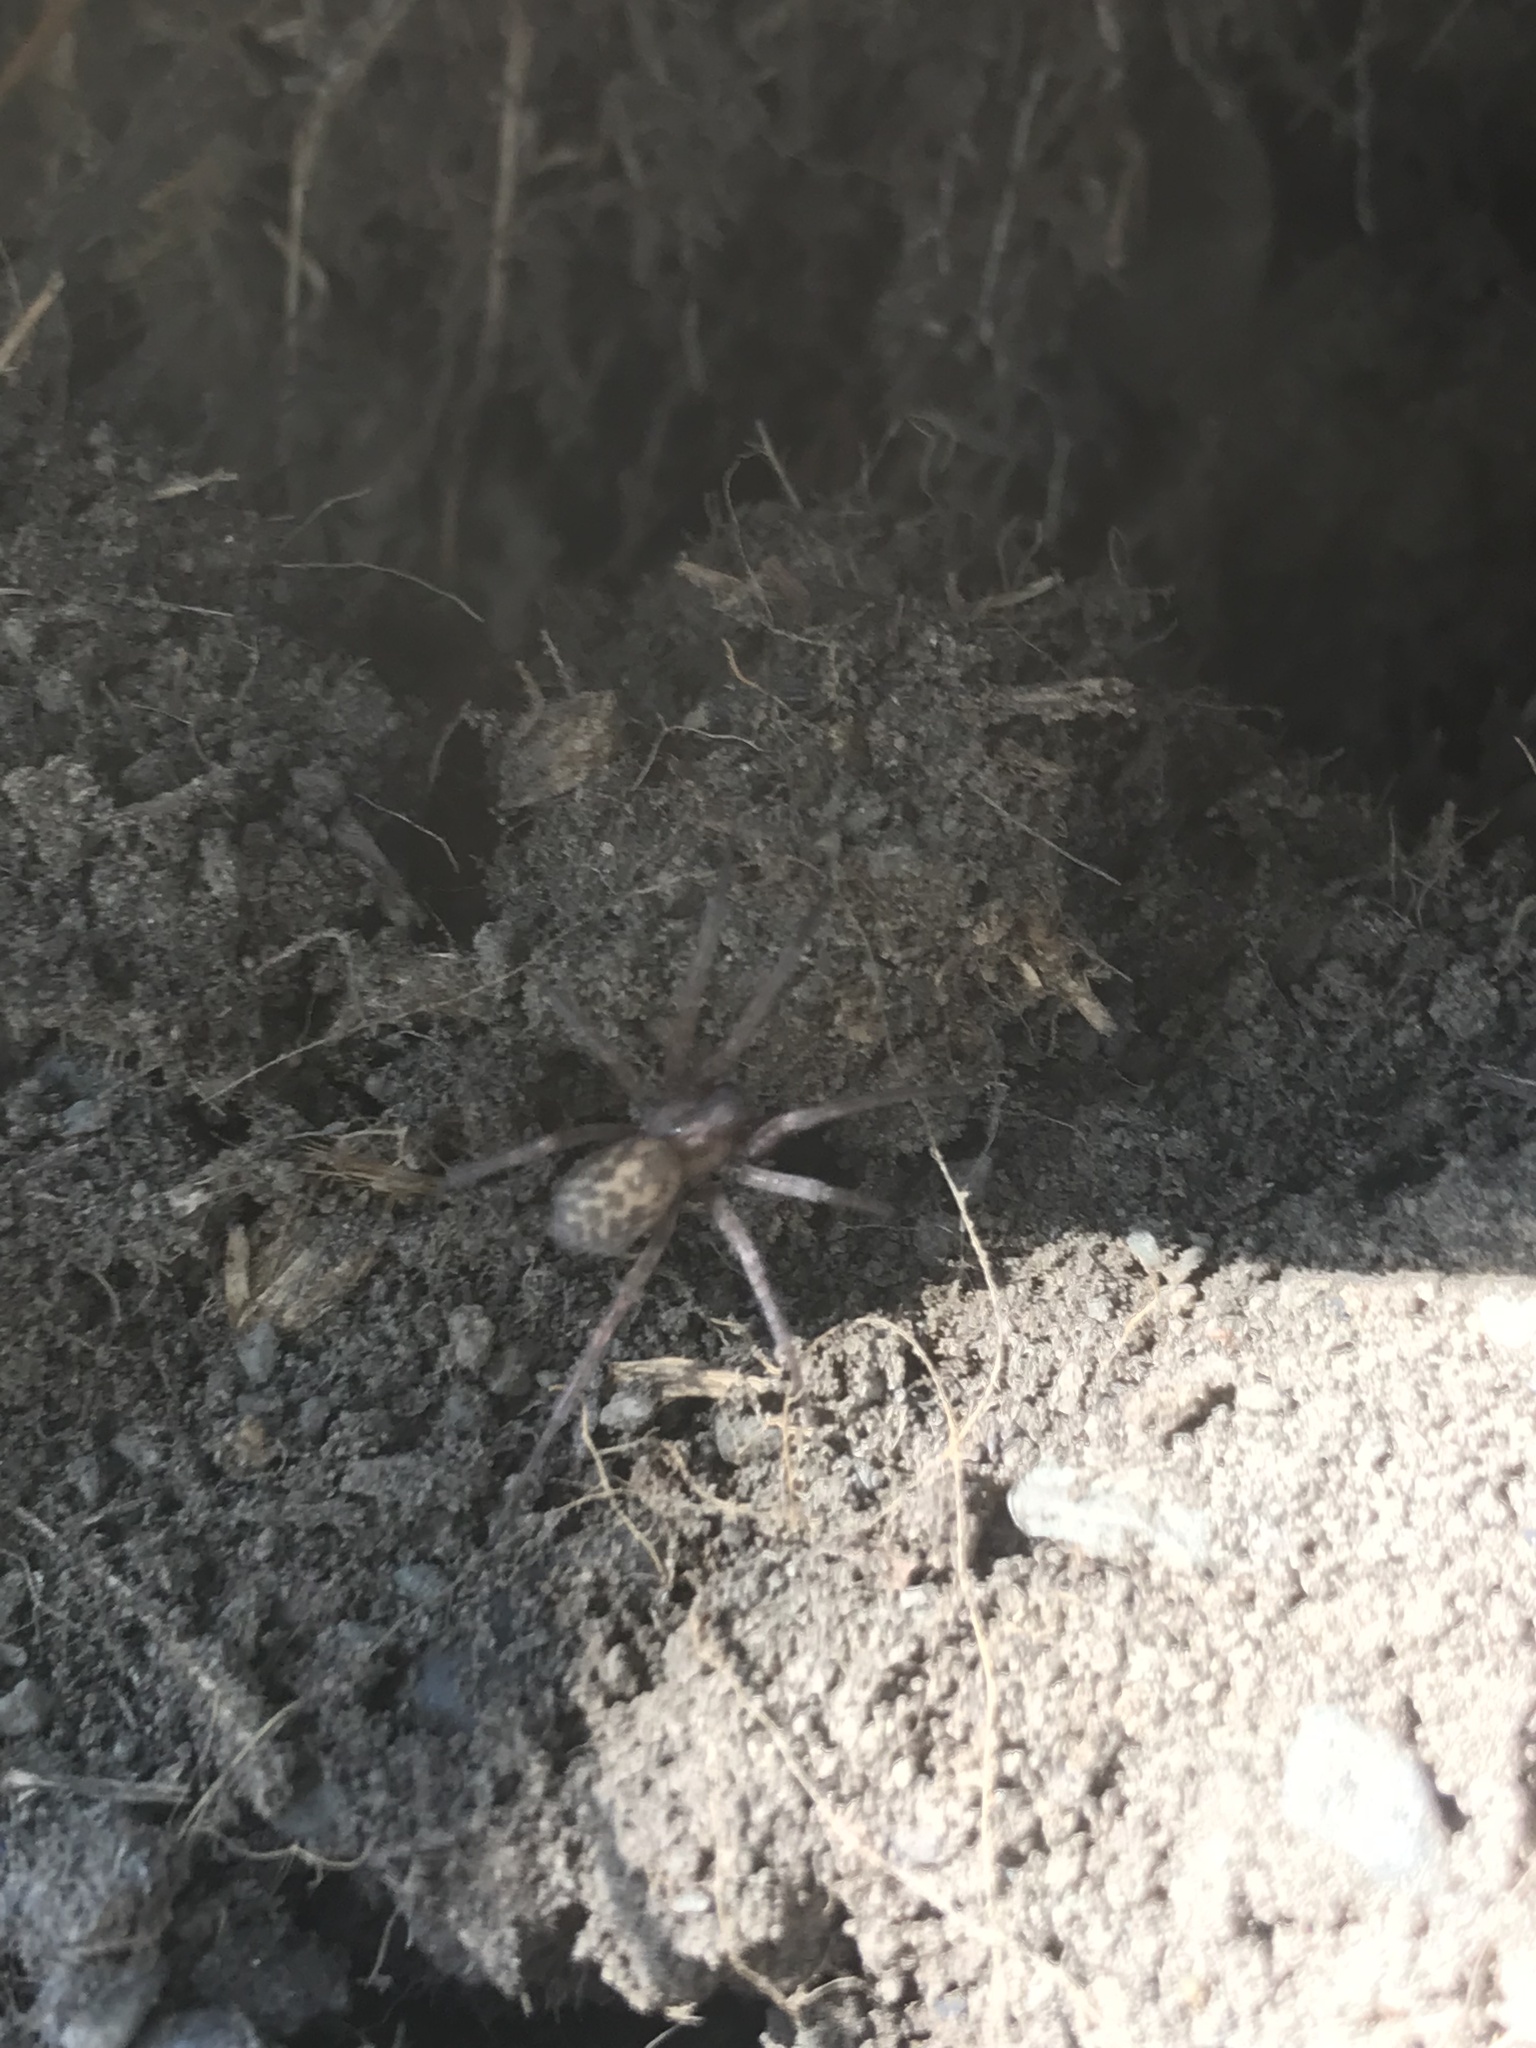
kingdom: Animalia
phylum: Arthropoda
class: Arachnida
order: Araneae
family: Agelenidae
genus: Tegenaria
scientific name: Tegenaria domestica
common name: Barn funnel weaver
